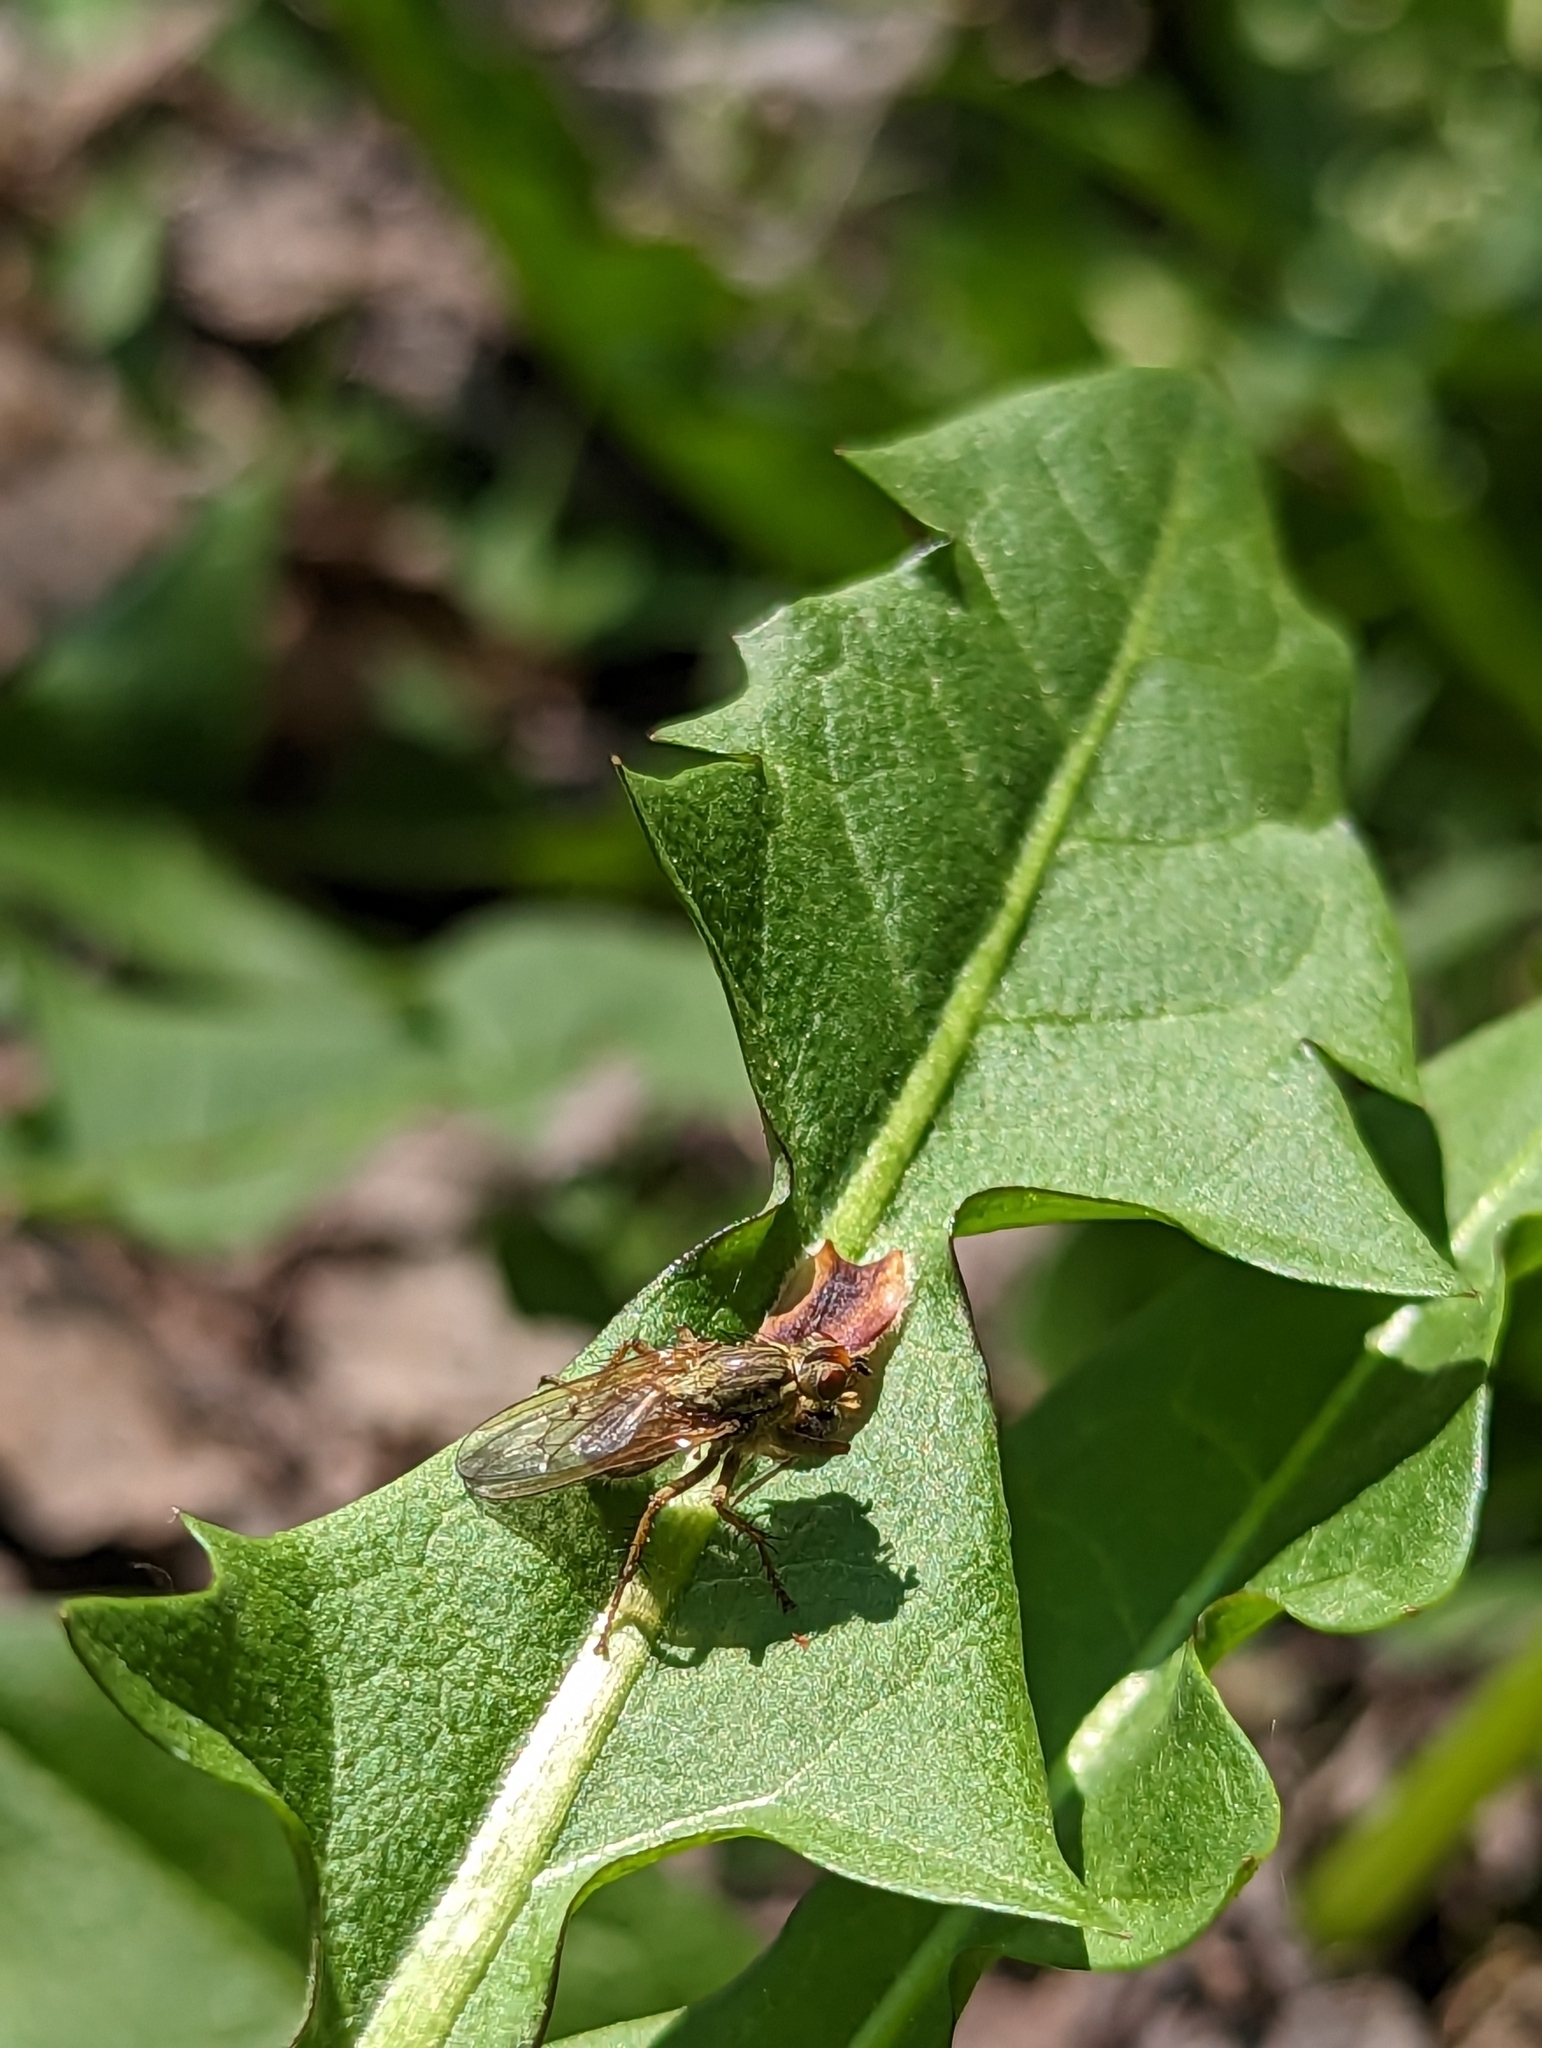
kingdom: Animalia
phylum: Arthropoda
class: Insecta
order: Diptera
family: Scathophagidae
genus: Scathophaga
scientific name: Scathophaga stercoraria
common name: Yellow dung fly
